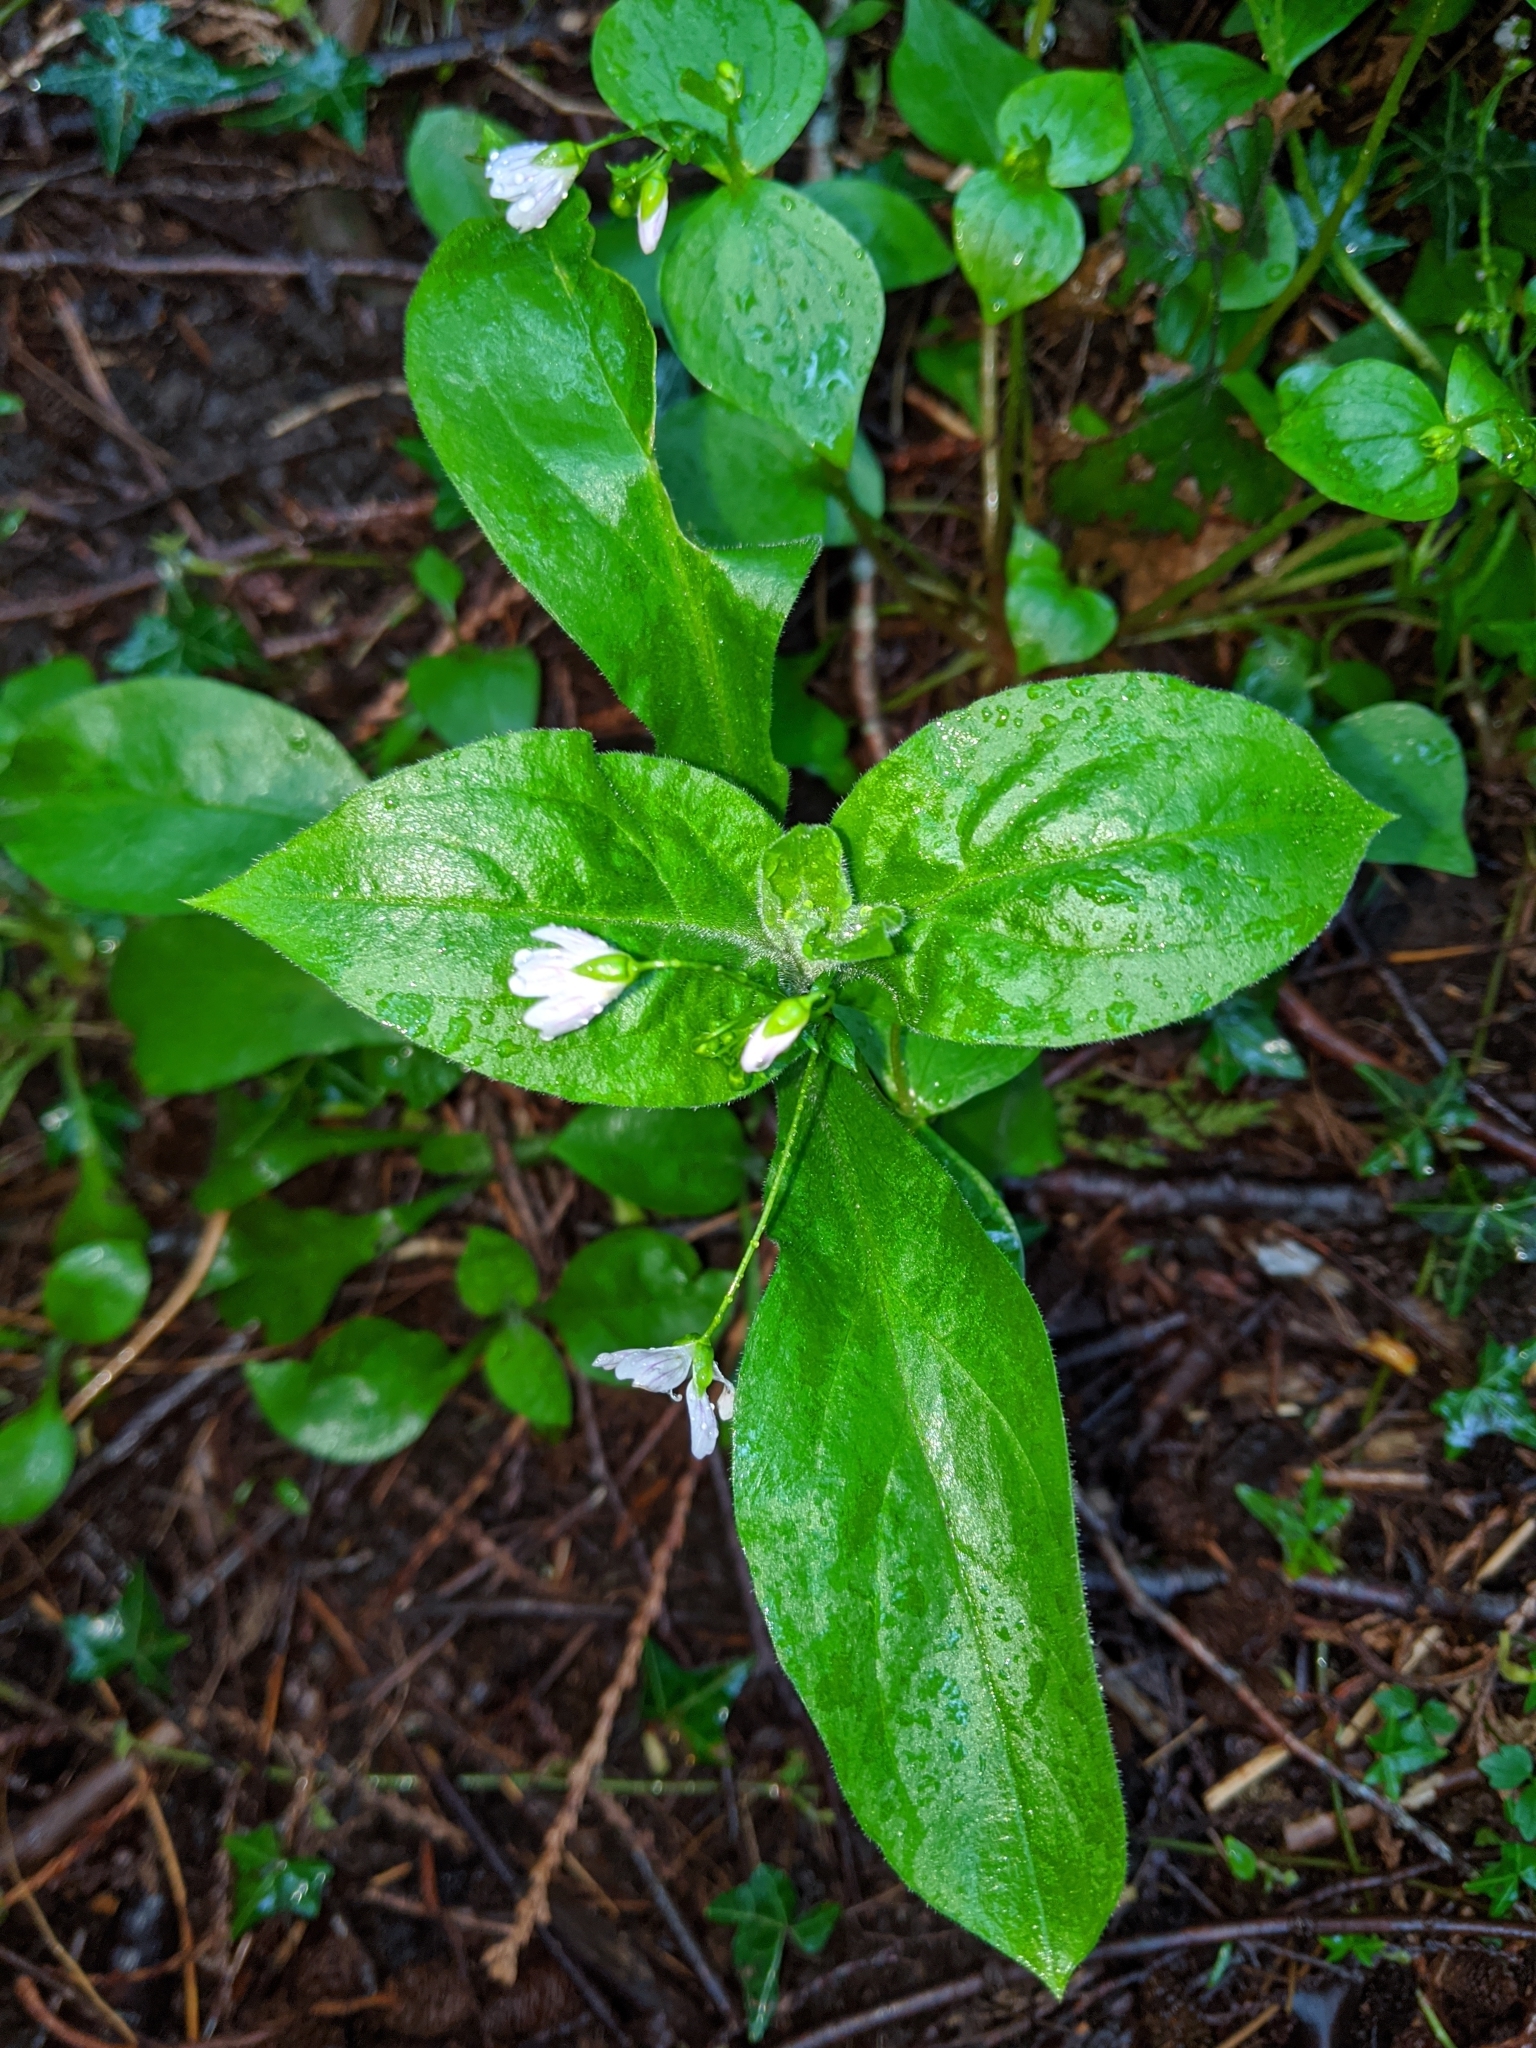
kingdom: Plantae
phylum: Tracheophyta
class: Magnoliopsida
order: Caryophyllales
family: Montiaceae
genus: Claytonia
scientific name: Claytonia sibirica
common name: Pink purslane
